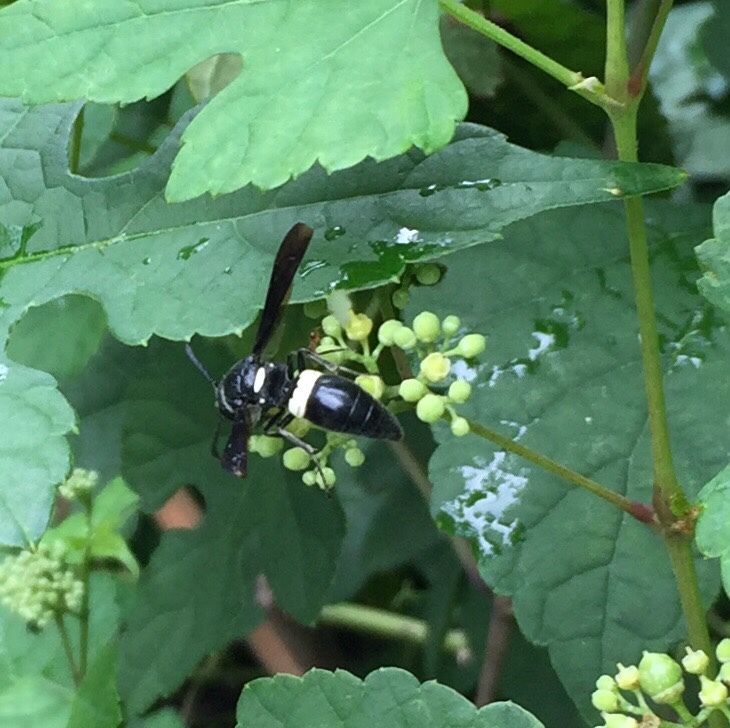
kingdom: Animalia
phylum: Arthropoda
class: Insecta
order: Hymenoptera
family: Eumenidae
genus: Monobia
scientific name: Monobia quadridens
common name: Four-toothed mason wasp
